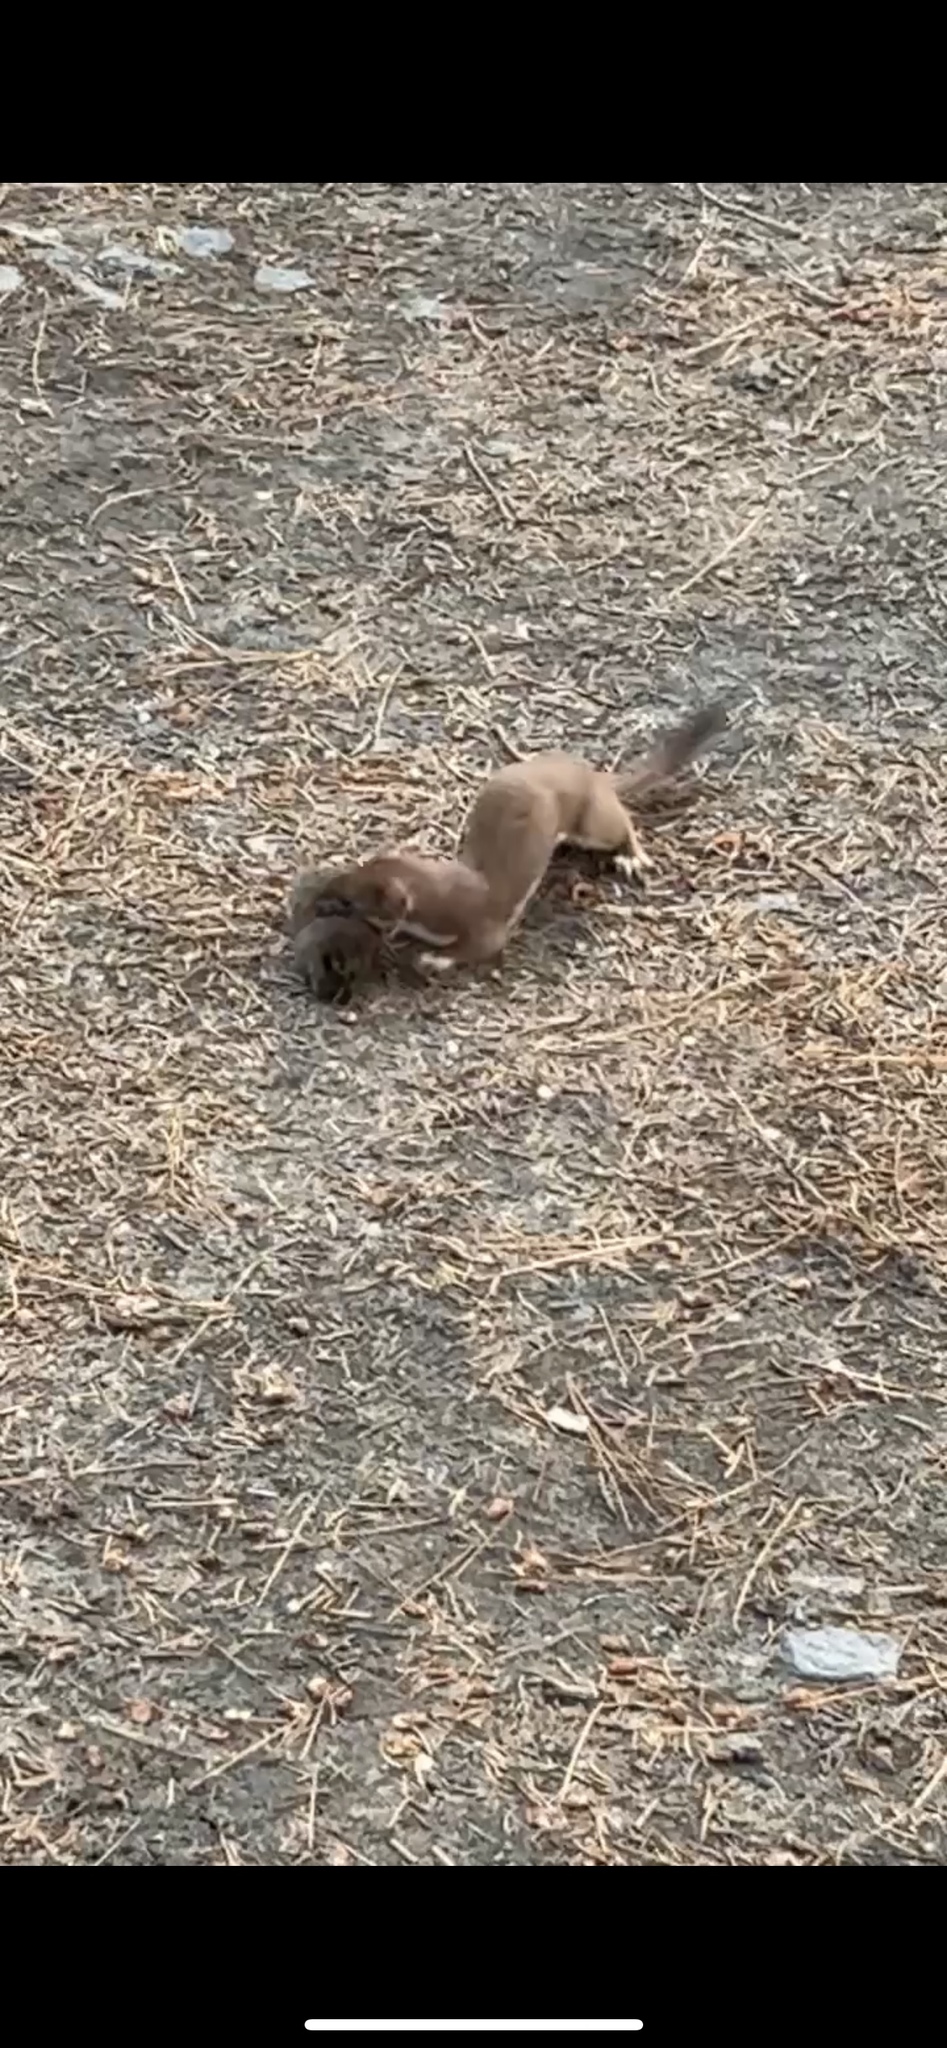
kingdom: Animalia
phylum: Chordata
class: Mammalia
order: Carnivora
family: Mustelidae
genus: Mustela
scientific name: Mustela erminea
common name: Stoat
